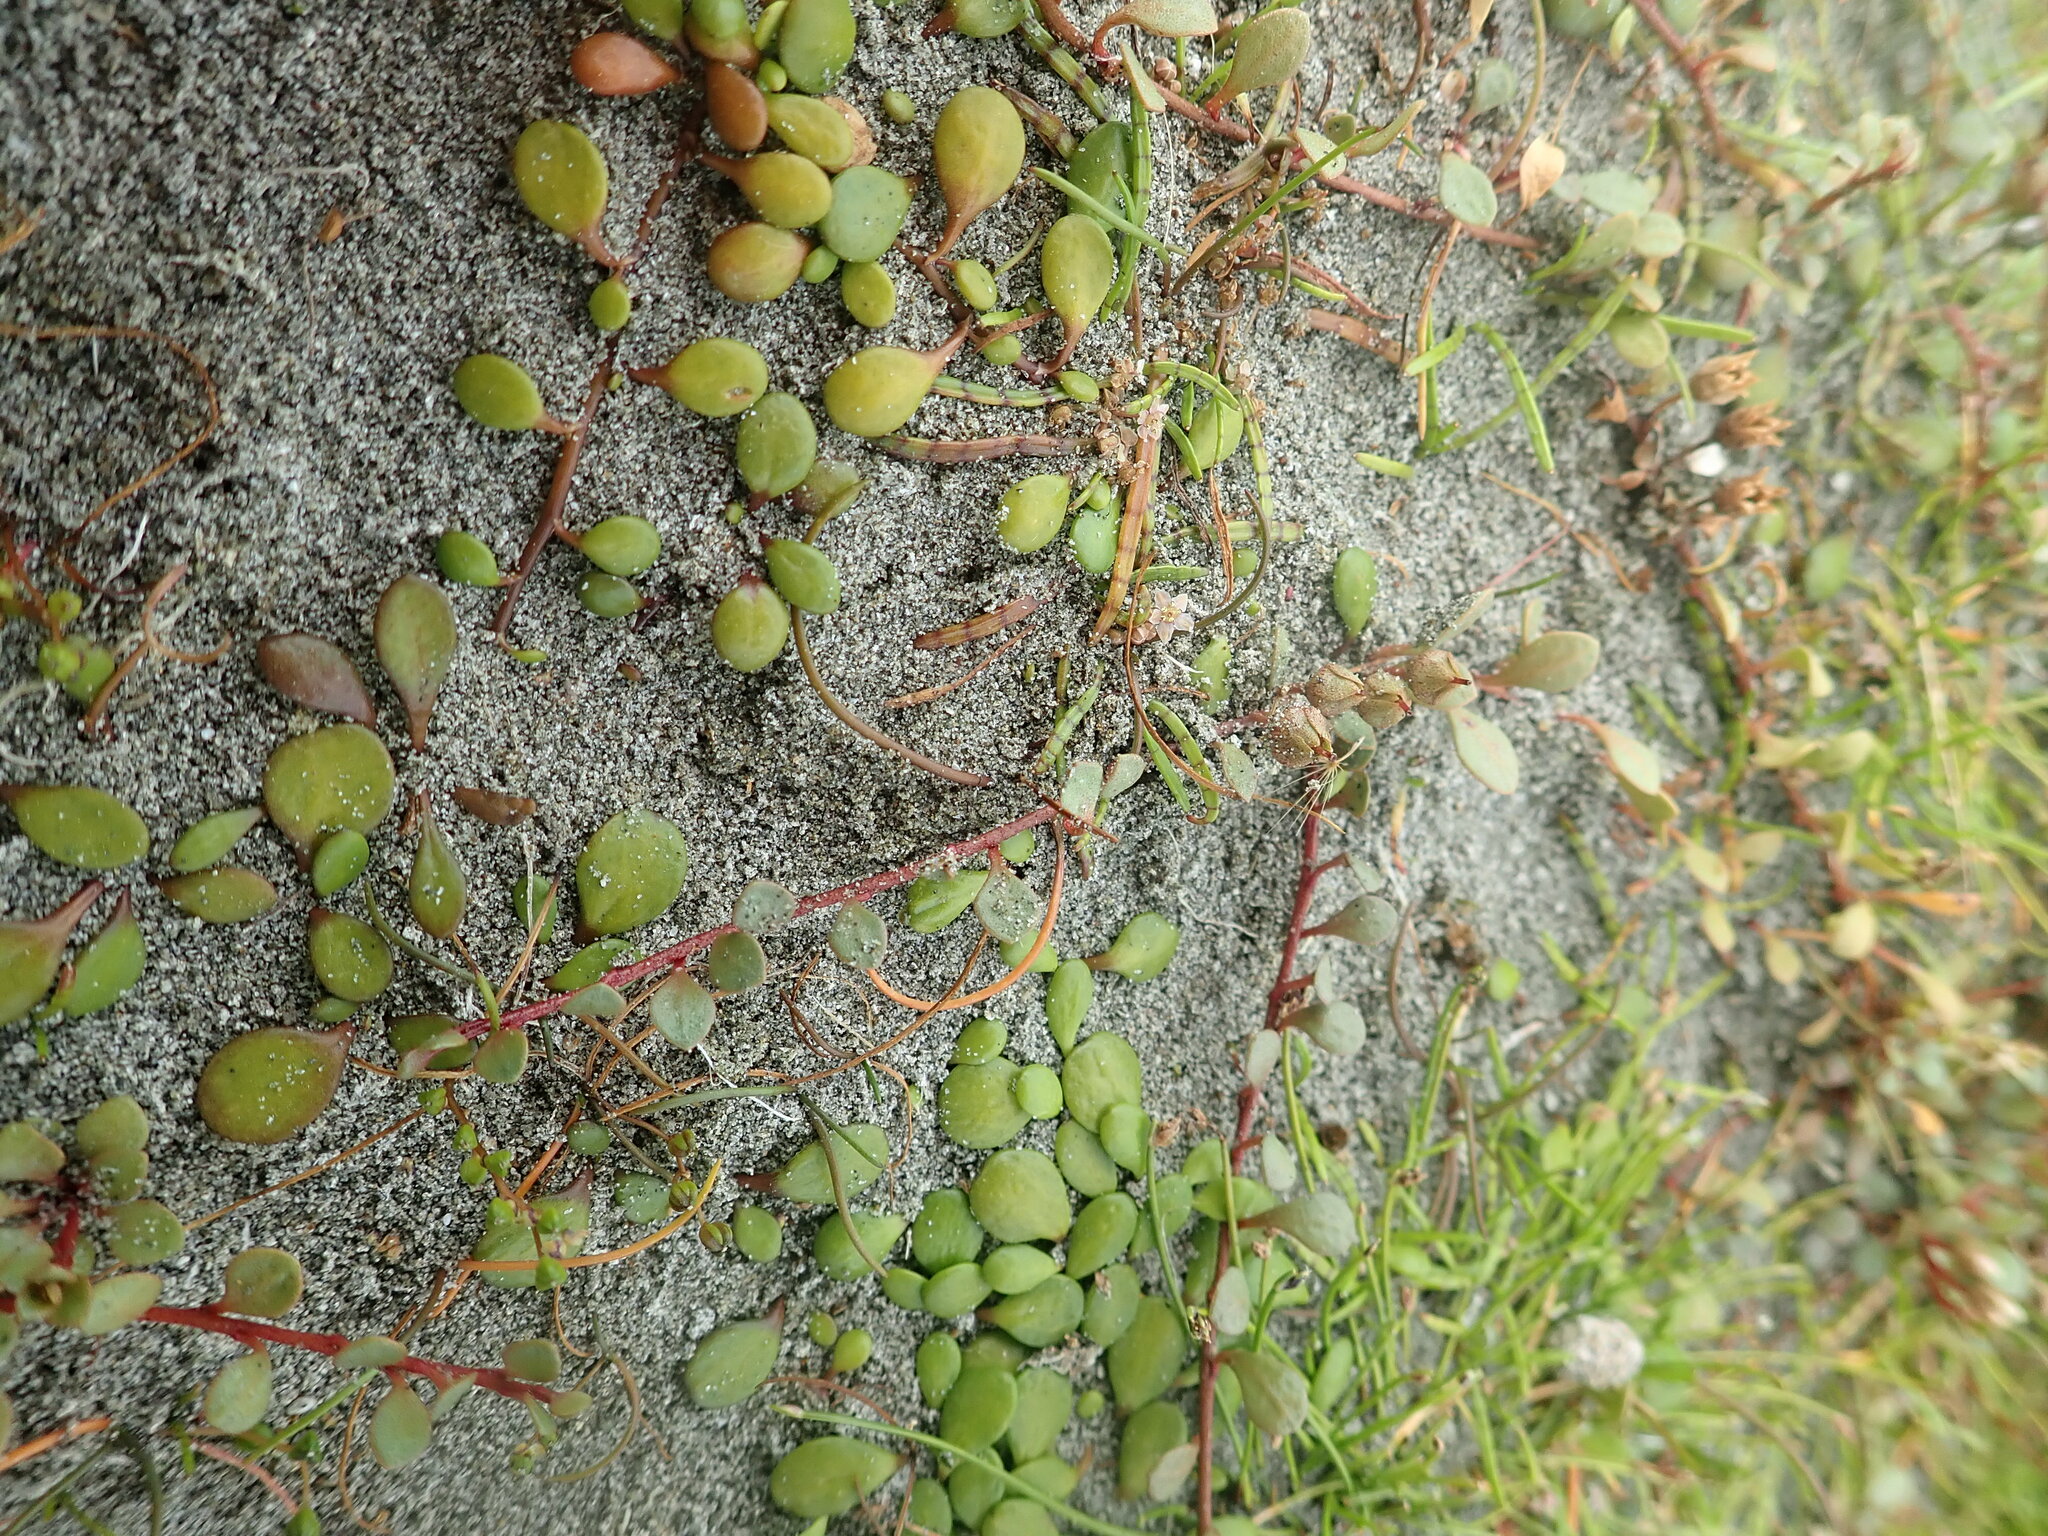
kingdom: Plantae
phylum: Tracheophyta
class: Magnoliopsida
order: Ericales
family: Primulaceae
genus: Samolus
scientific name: Samolus repens
